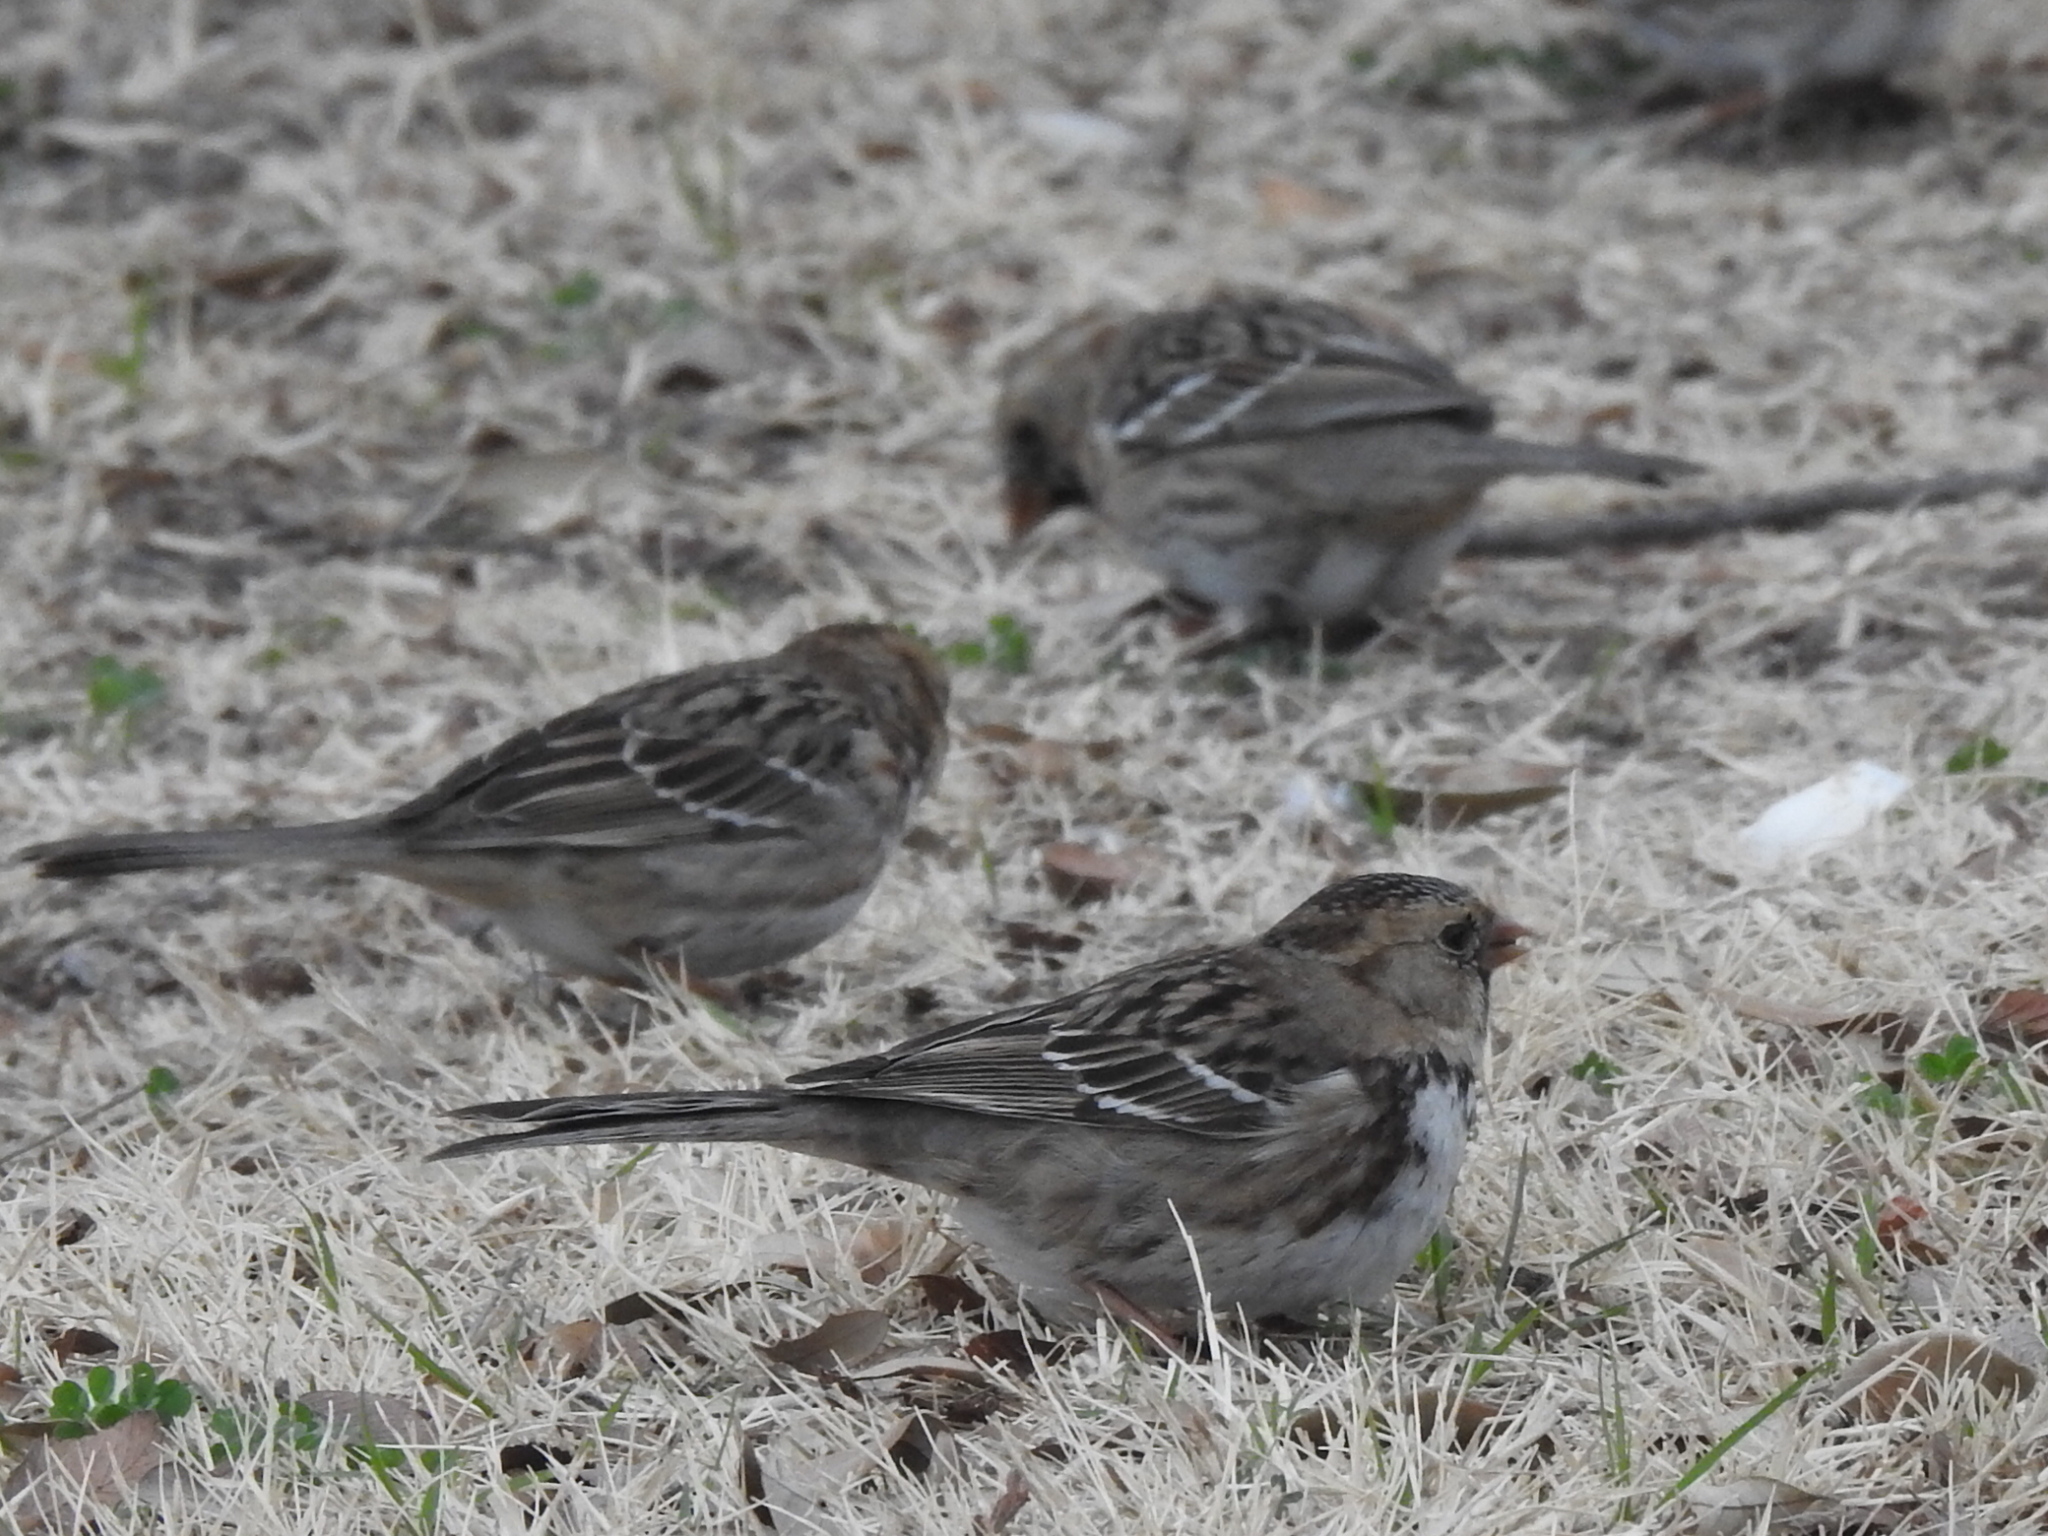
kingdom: Animalia
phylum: Chordata
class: Aves
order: Passeriformes
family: Passerellidae
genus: Zonotrichia
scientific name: Zonotrichia querula
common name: Harris's sparrow
